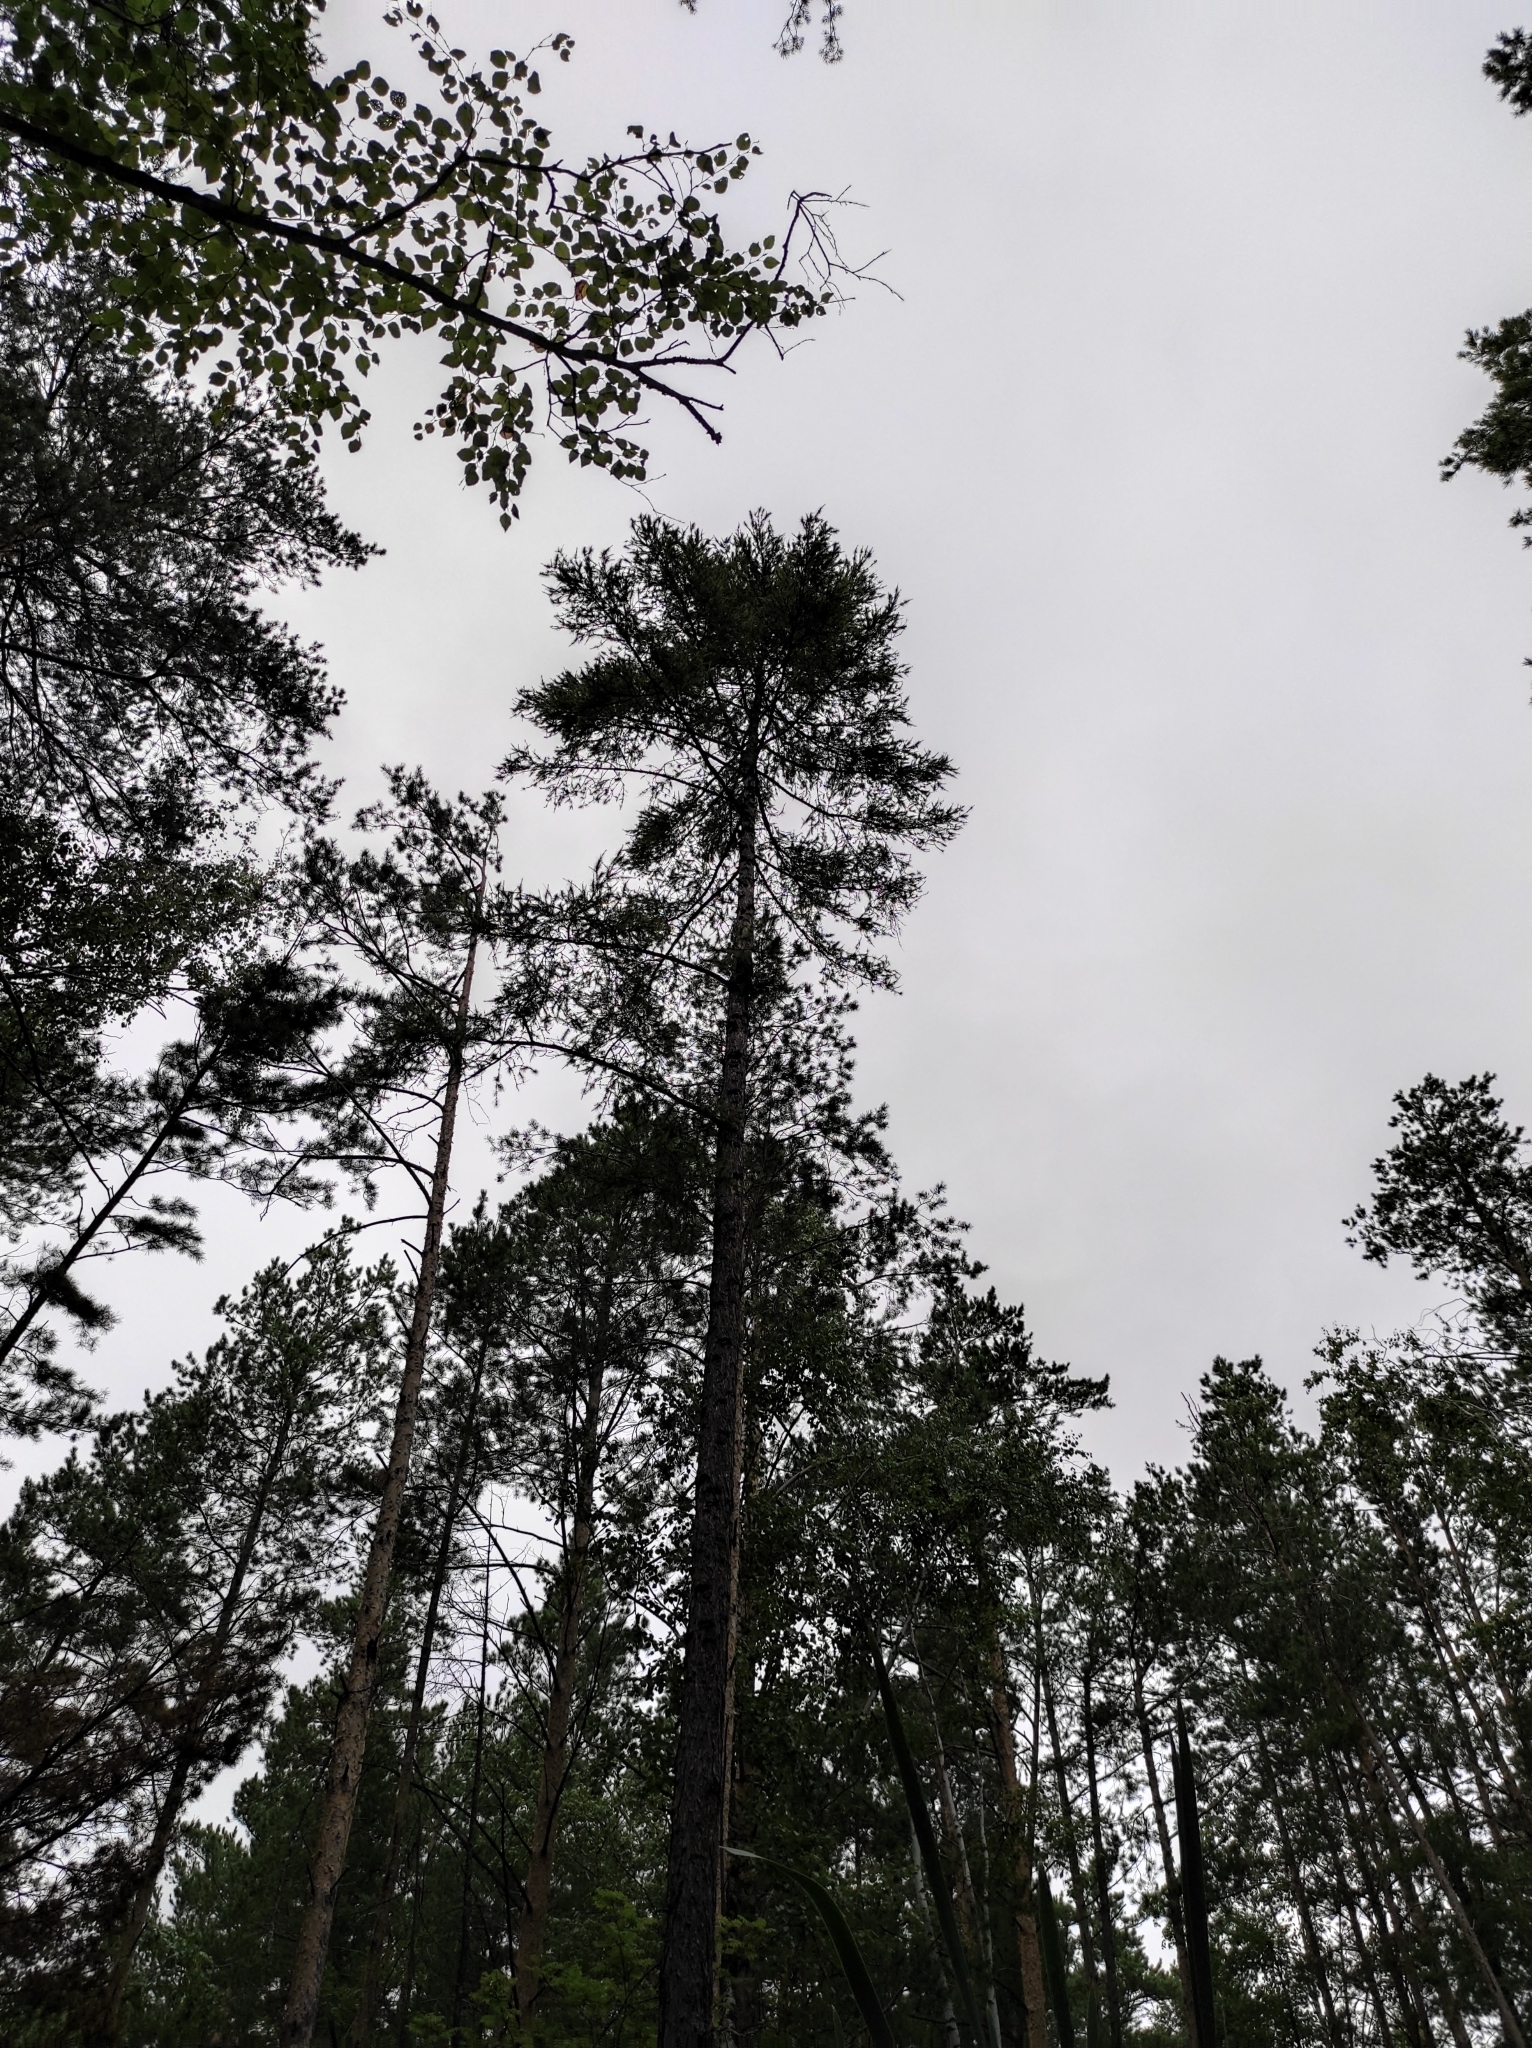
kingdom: Plantae
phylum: Tracheophyta
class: Pinopsida
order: Pinales
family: Pinaceae
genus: Larix
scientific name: Larix sibirica
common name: Siberian larch
